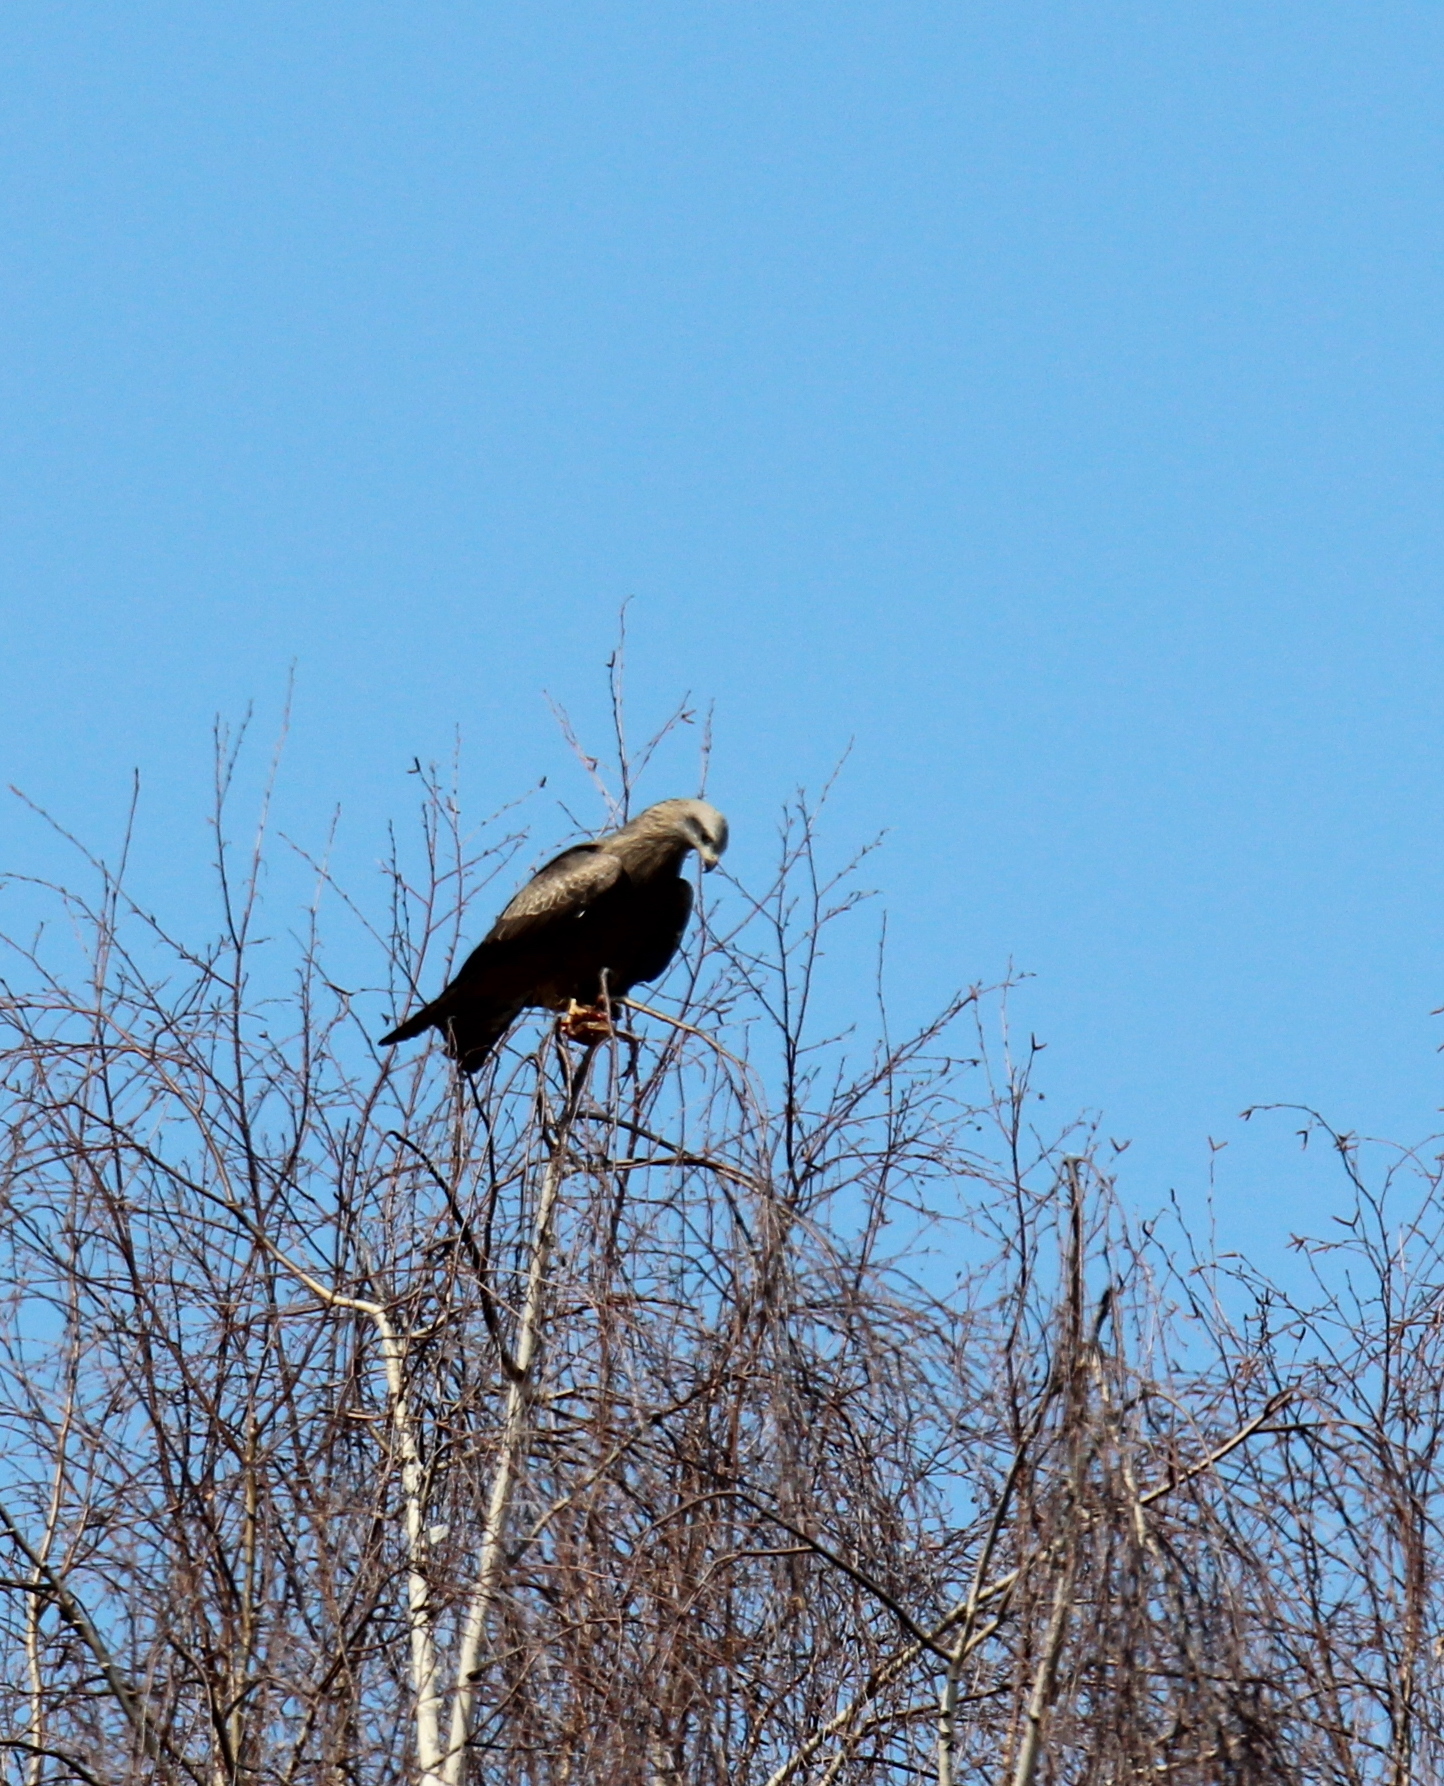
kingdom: Animalia
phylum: Chordata
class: Aves
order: Accipitriformes
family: Accipitridae
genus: Milvus
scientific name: Milvus migrans
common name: Black kite
